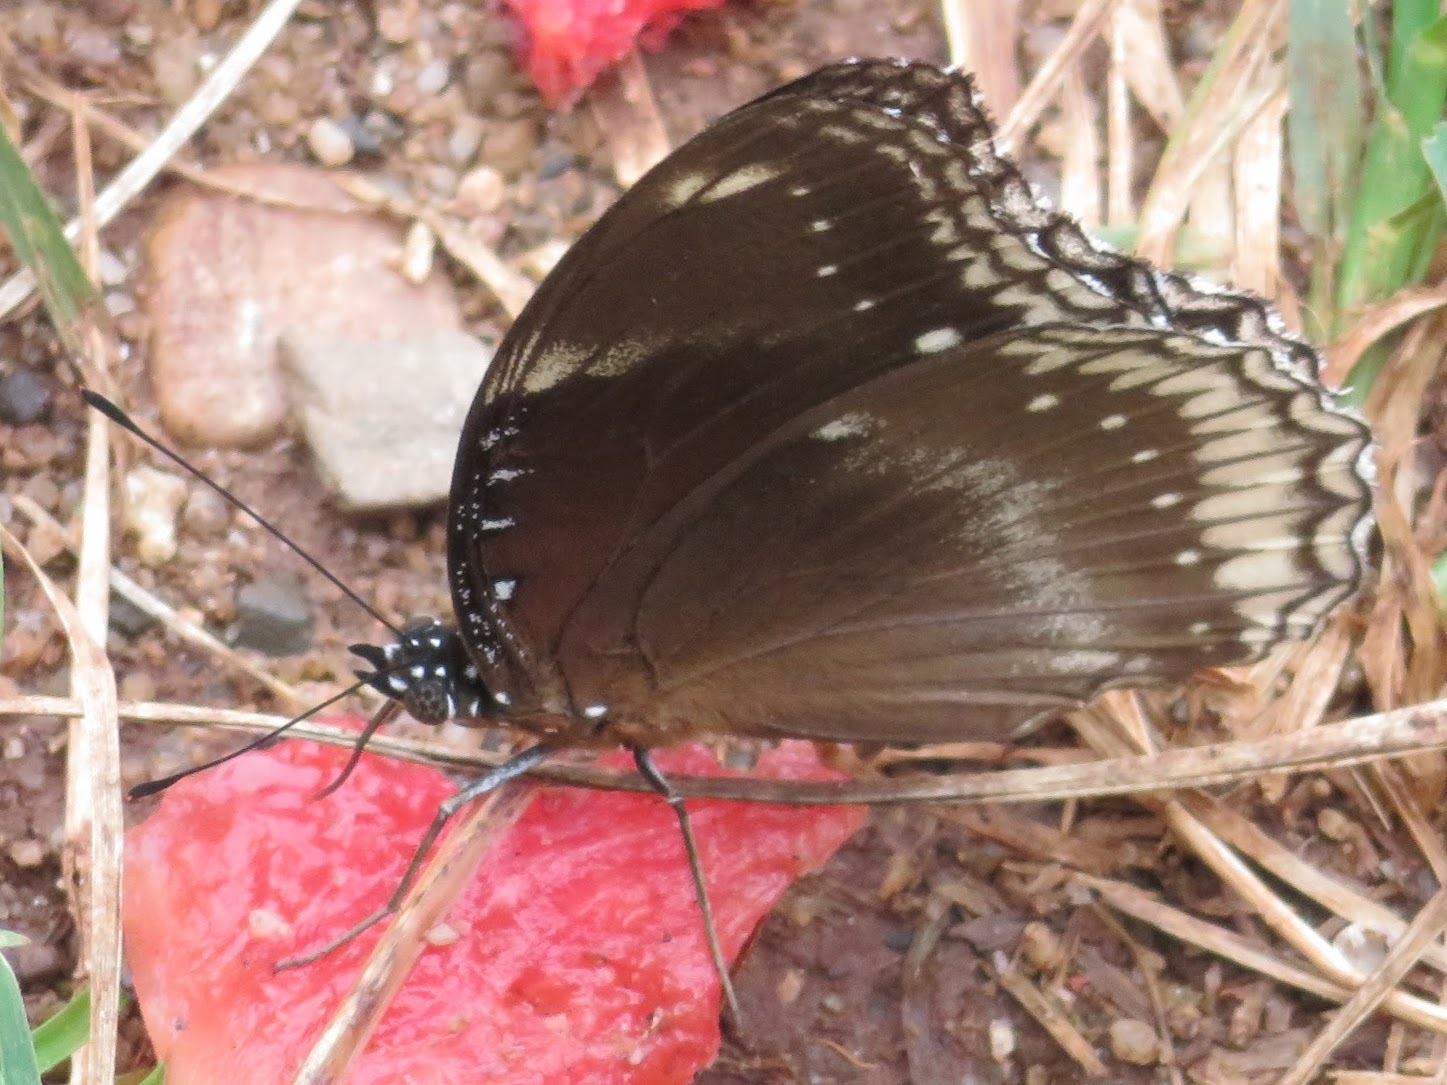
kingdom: Animalia
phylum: Arthropoda
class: Insecta
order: Lepidoptera
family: Nymphalidae
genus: Hypolimnas
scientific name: Hypolimnas bolina
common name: Great eggfly
